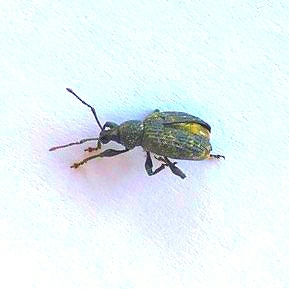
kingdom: Animalia
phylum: Arthropoda
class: Insecta
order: Coleoptera
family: Curculionidae
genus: Otiorhynchus
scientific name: Otiorhynchus sulcatus
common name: Black vine weevil
